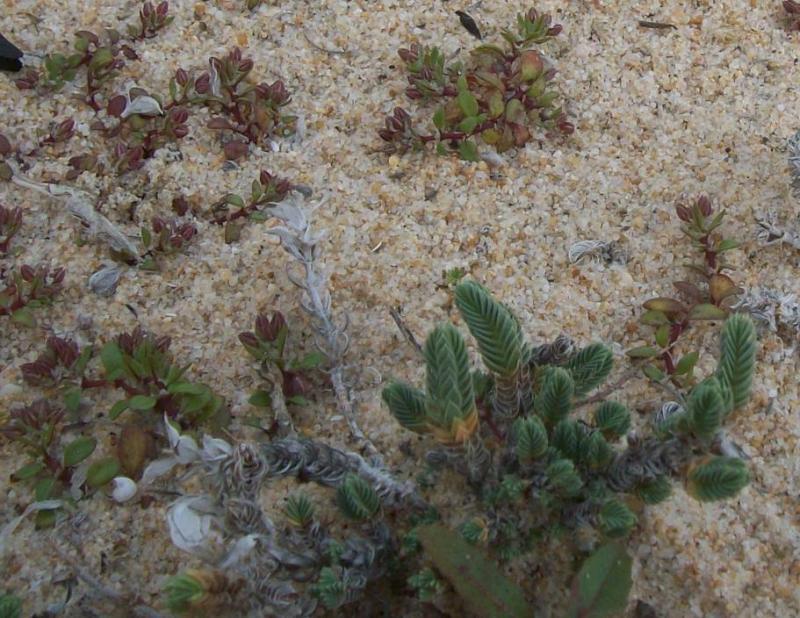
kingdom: Plantae
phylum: Tracheophyta
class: Magnoliopsida
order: Gentianales
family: Rubiaceae
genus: Crucianella
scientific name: Crucianella maritima
